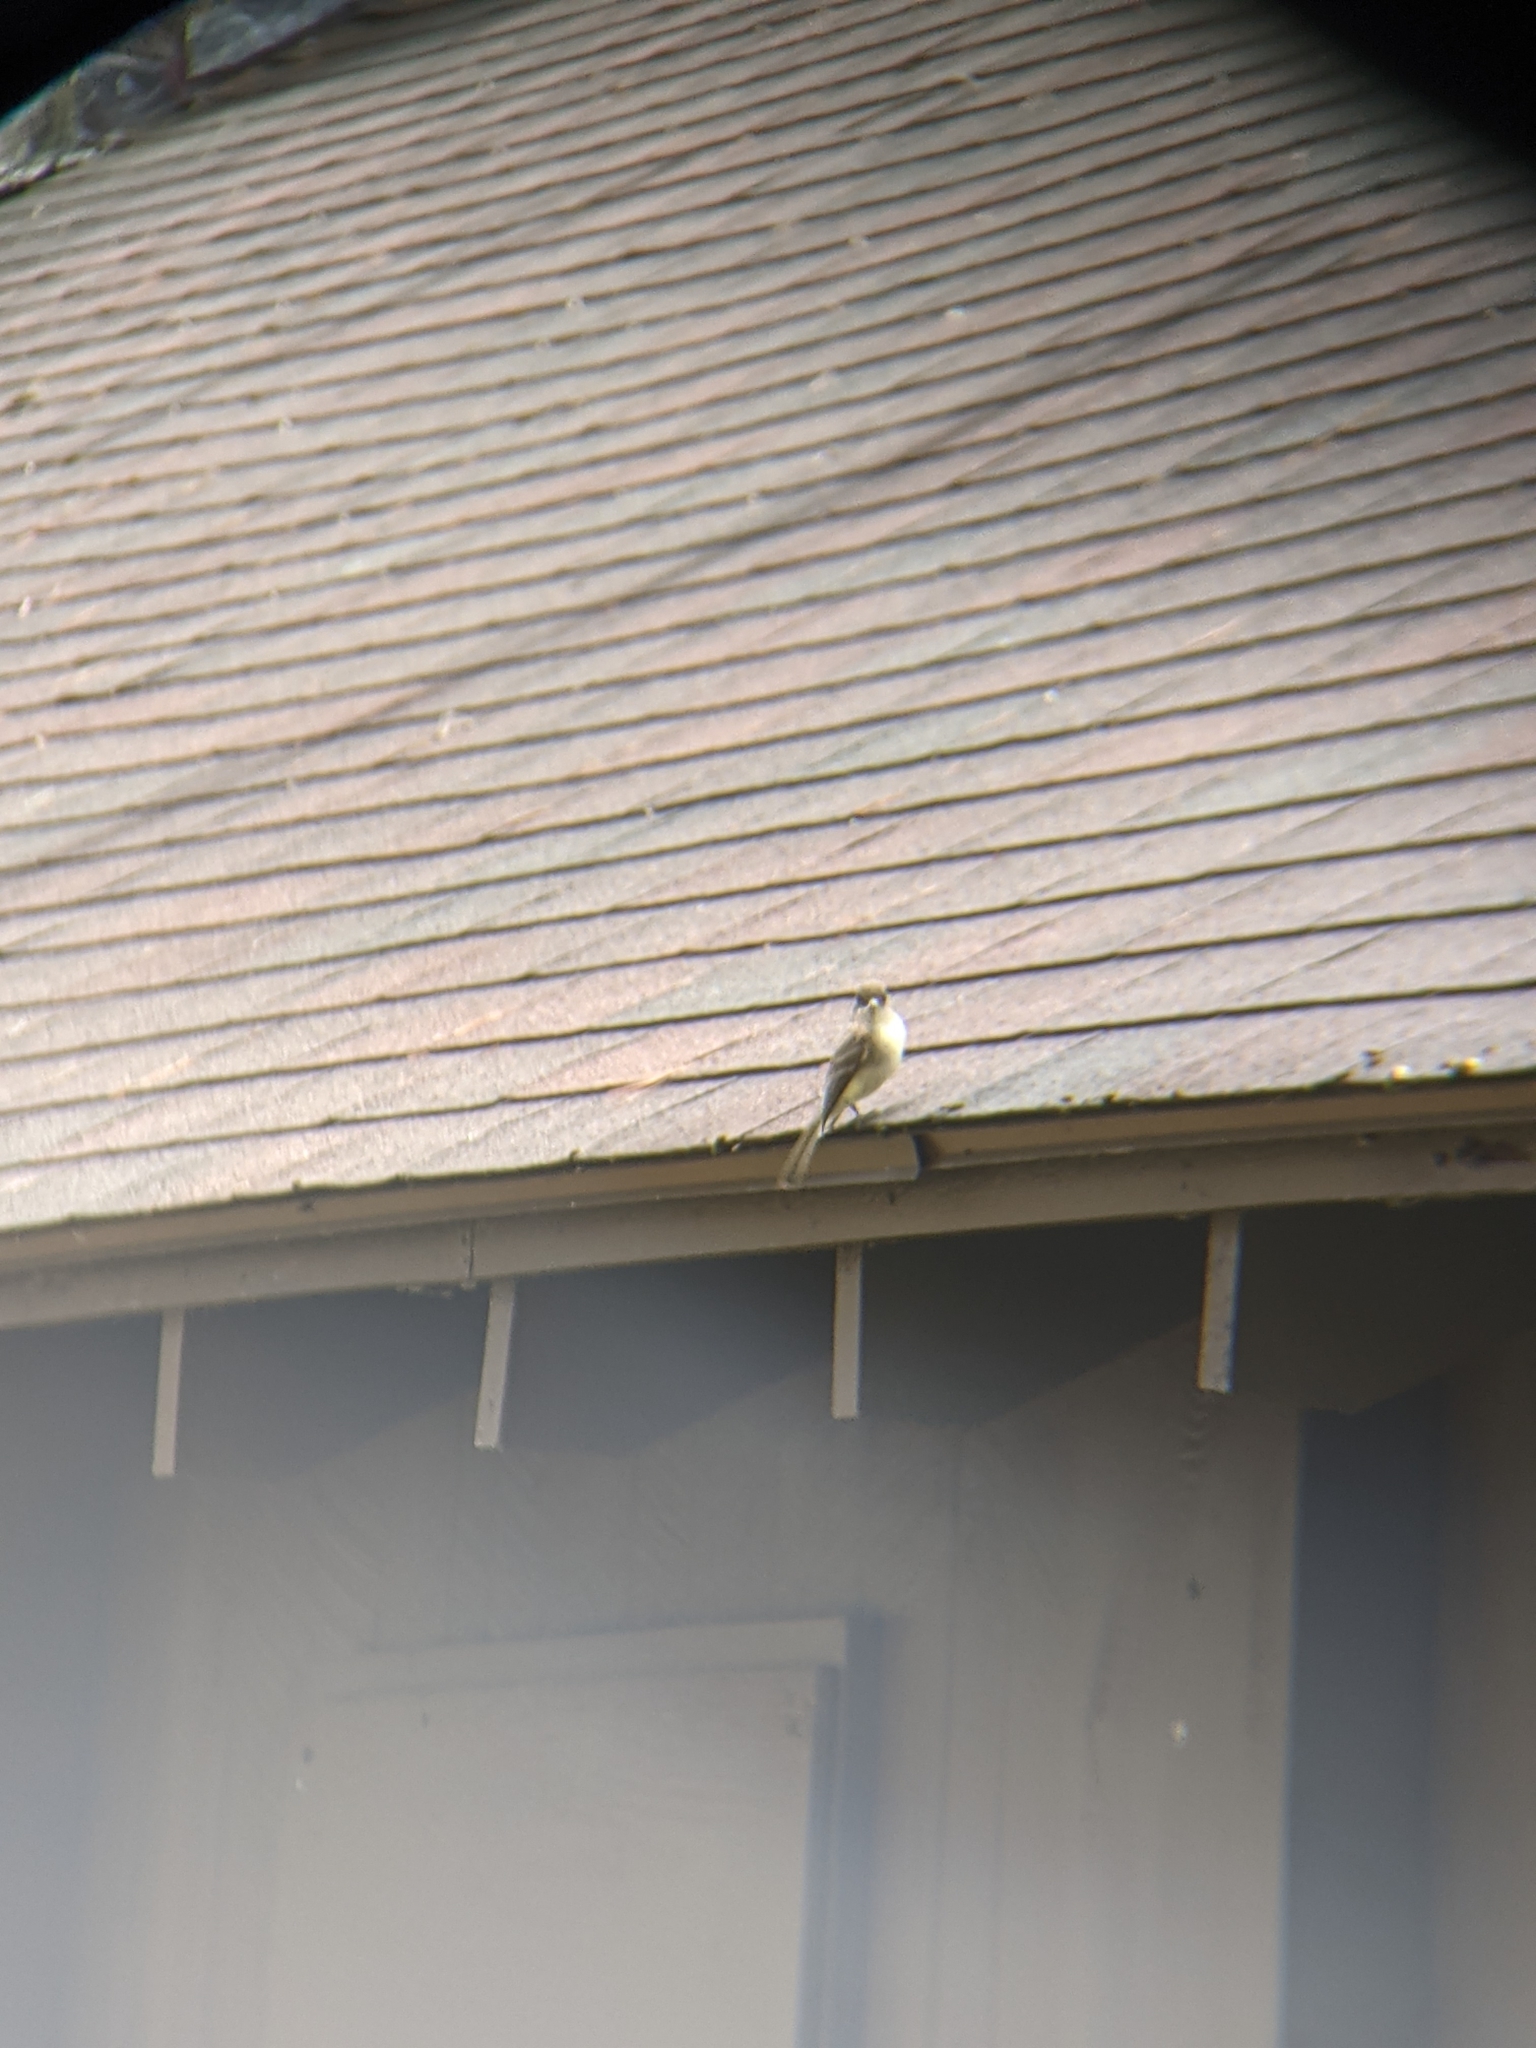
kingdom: Animalia
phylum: Chordata
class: Aves
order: Passeriformes
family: Tyrannidae
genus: Sayornis
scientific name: Sayornis phoebe
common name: Eastern phoebe
